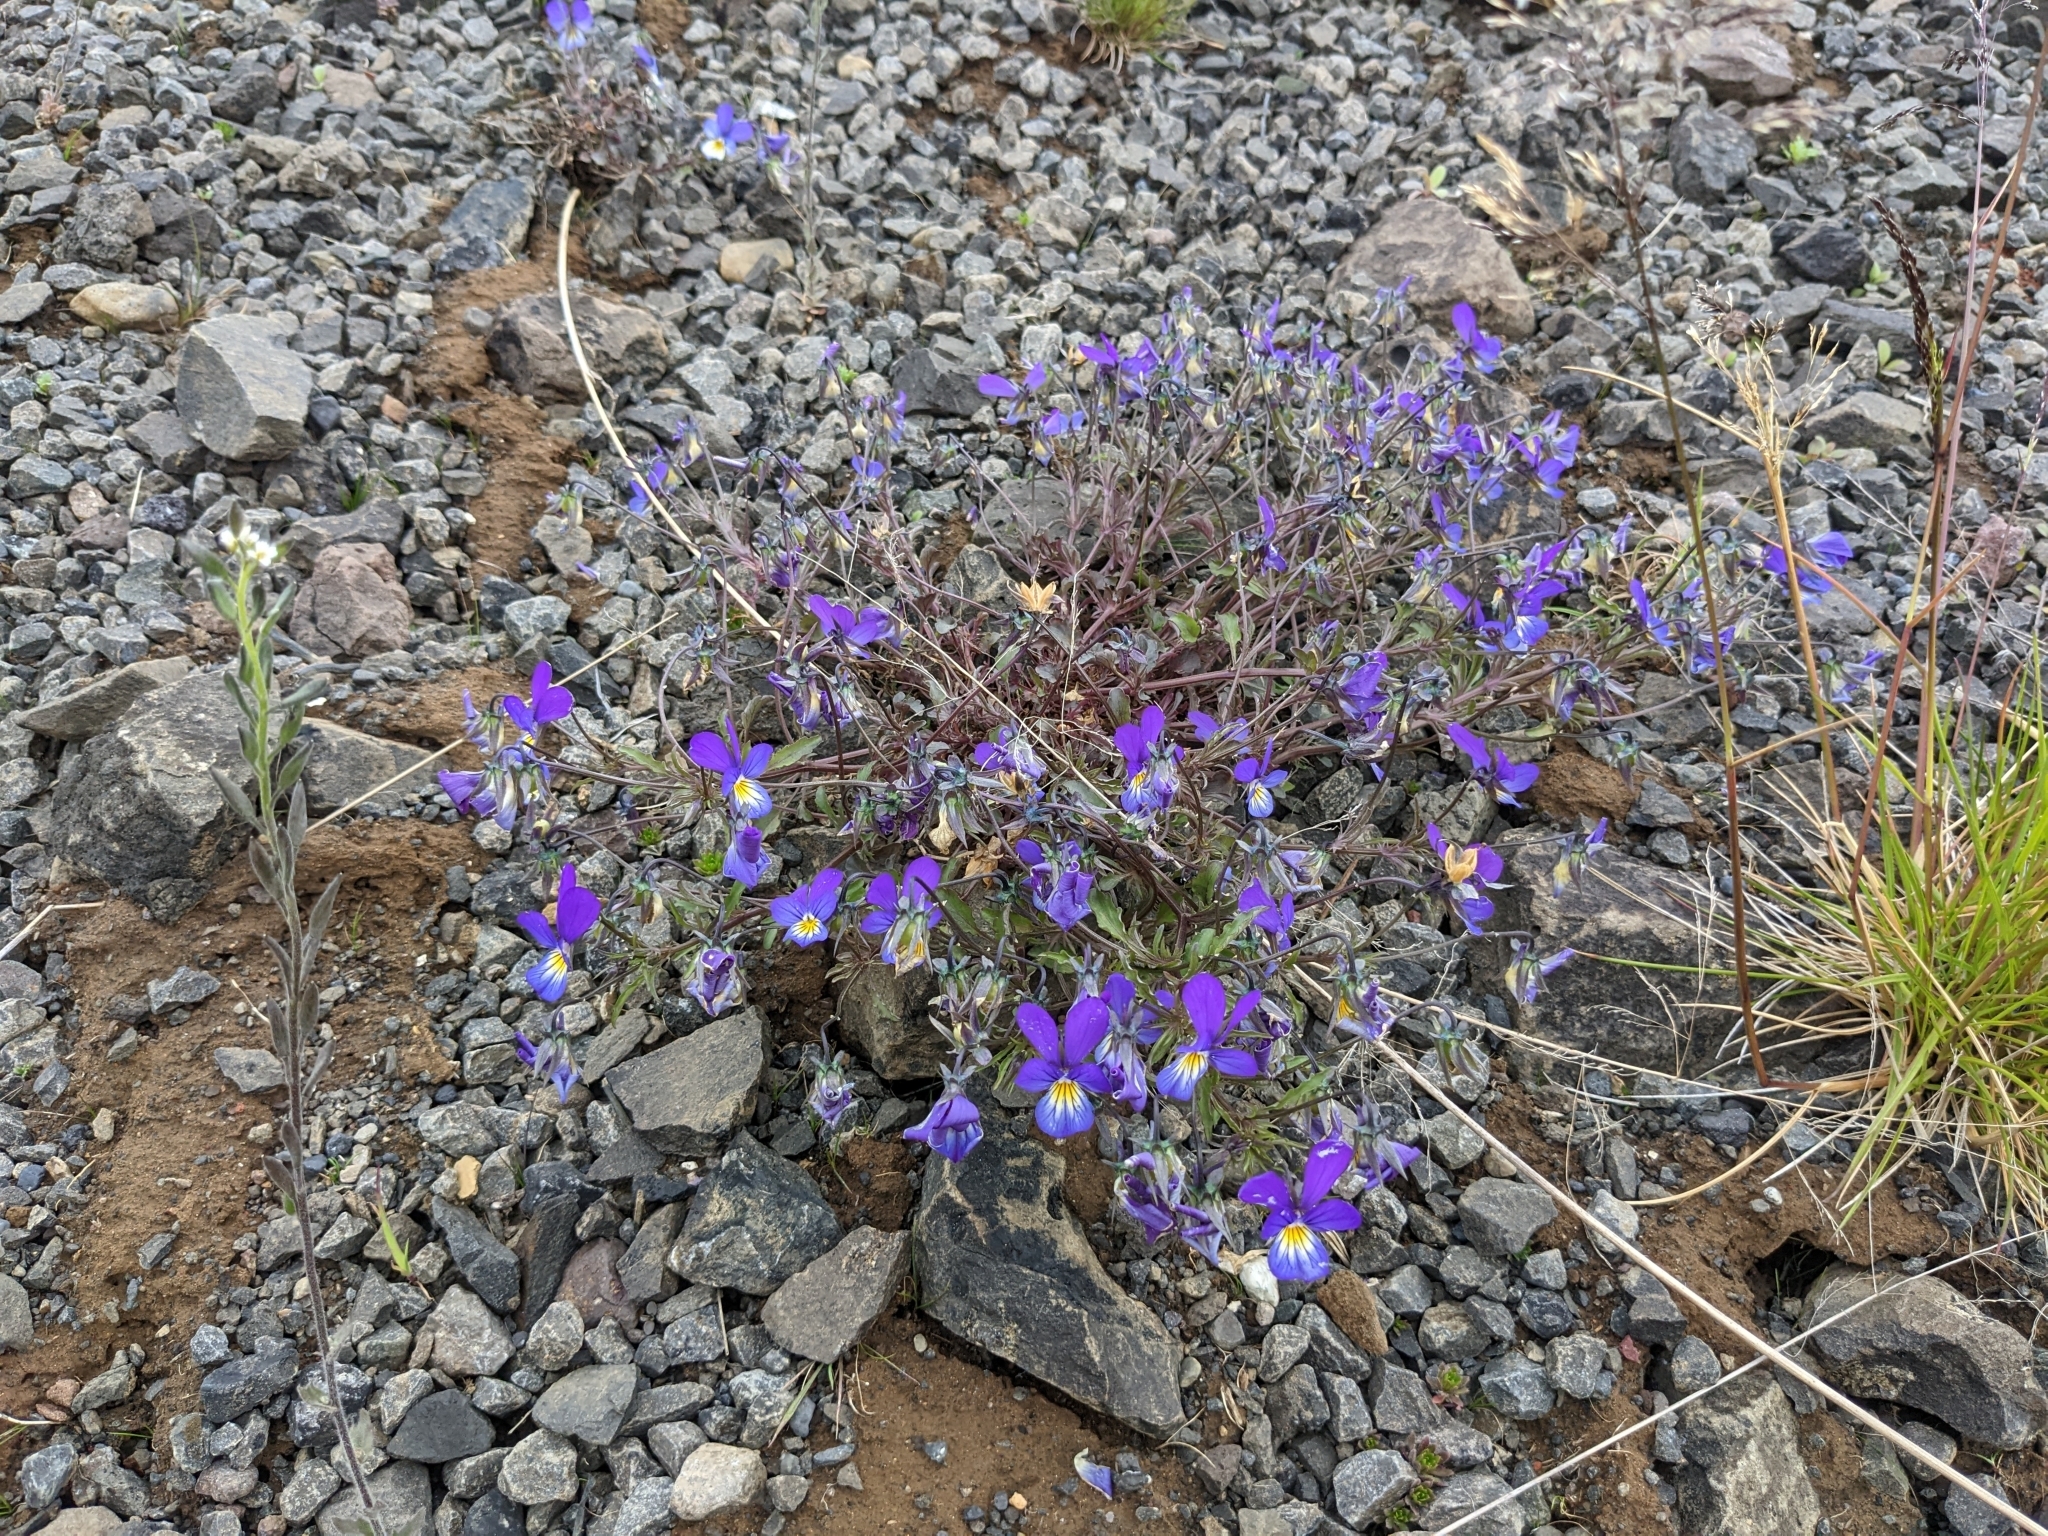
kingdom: Plantae
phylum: Tracheophyta
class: Magnoliopsida
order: Malpighiales
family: Violaceae
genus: Viola
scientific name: Viola tricolor
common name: Pansy
